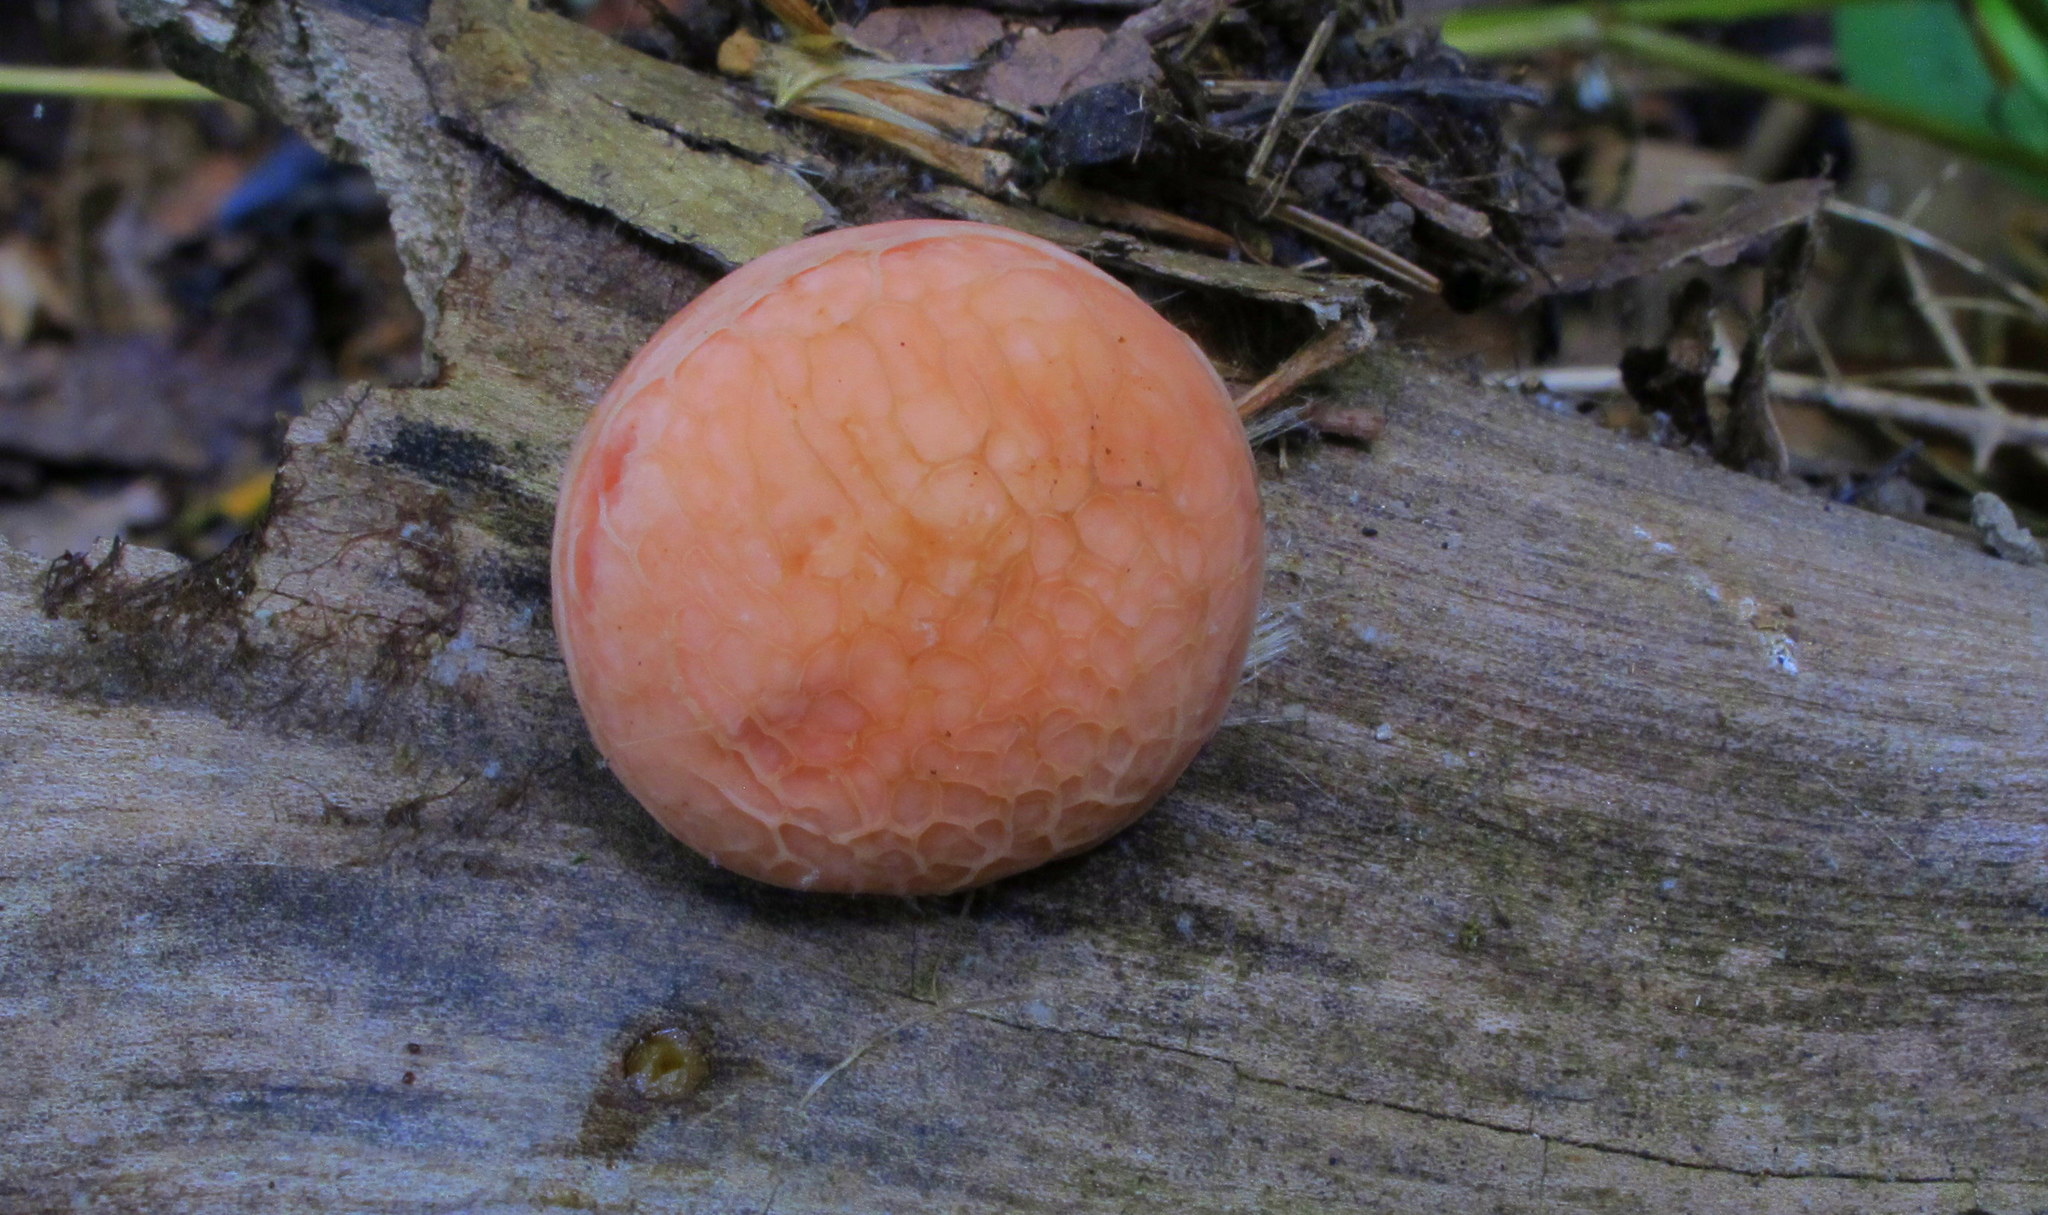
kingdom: Fungi
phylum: Basidiomycota
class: Agaricomycetes
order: Agaricales
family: Physalacriaceae
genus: Rhodotus
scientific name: Rhodotus palmatus
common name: Wrinkled peach
